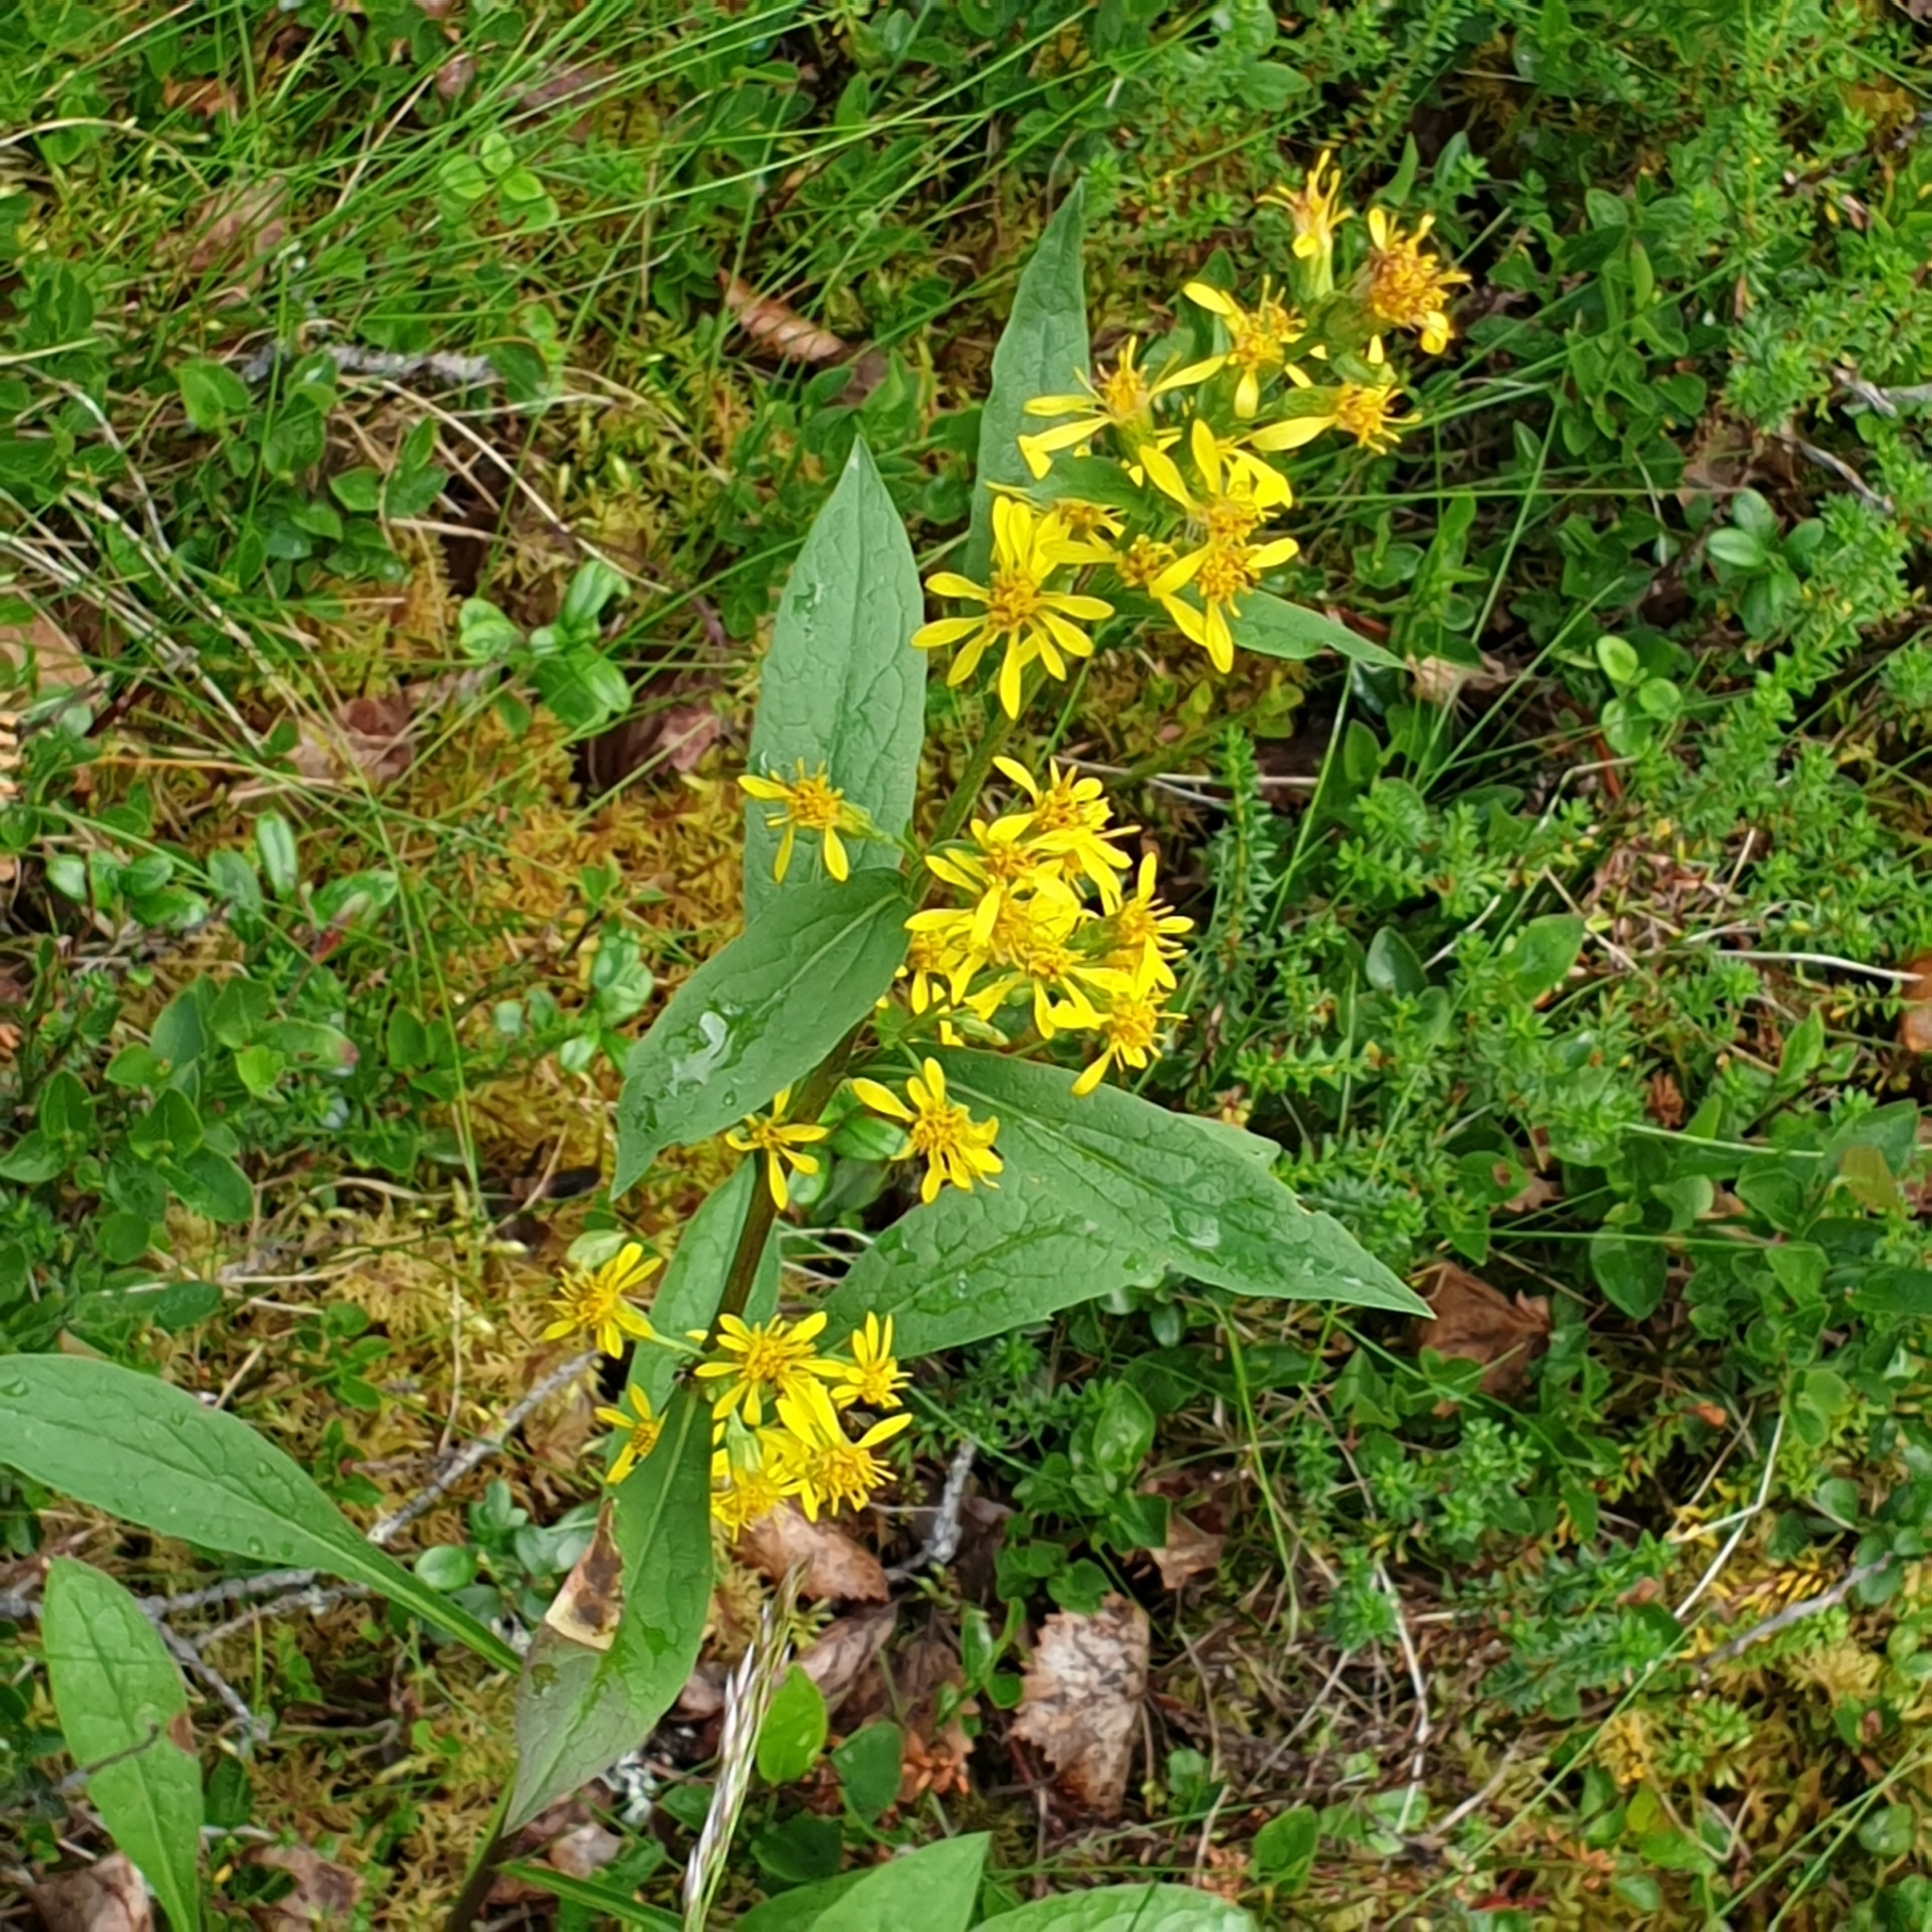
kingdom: Plantae
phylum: Tracheophyta
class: Magnoliopsida
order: Asterales
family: Asteraceae
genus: Solidago
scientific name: Solidago virgaurea
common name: Goldenrod
